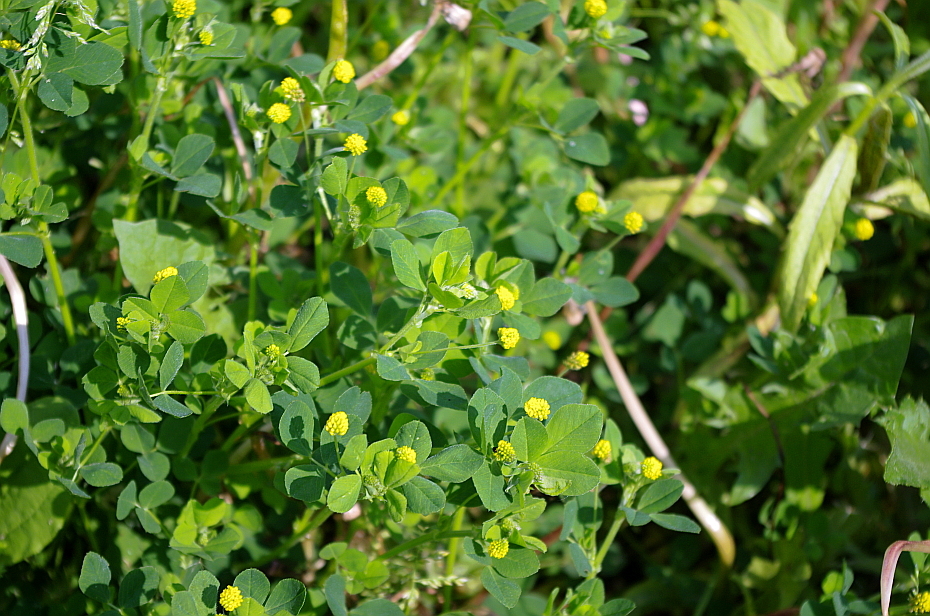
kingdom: Plantae
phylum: Tracheophyta
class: Magnoliopsida
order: Fabales
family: Fabaceae
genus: Medicago
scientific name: Medicago lupulina
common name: Black medick
